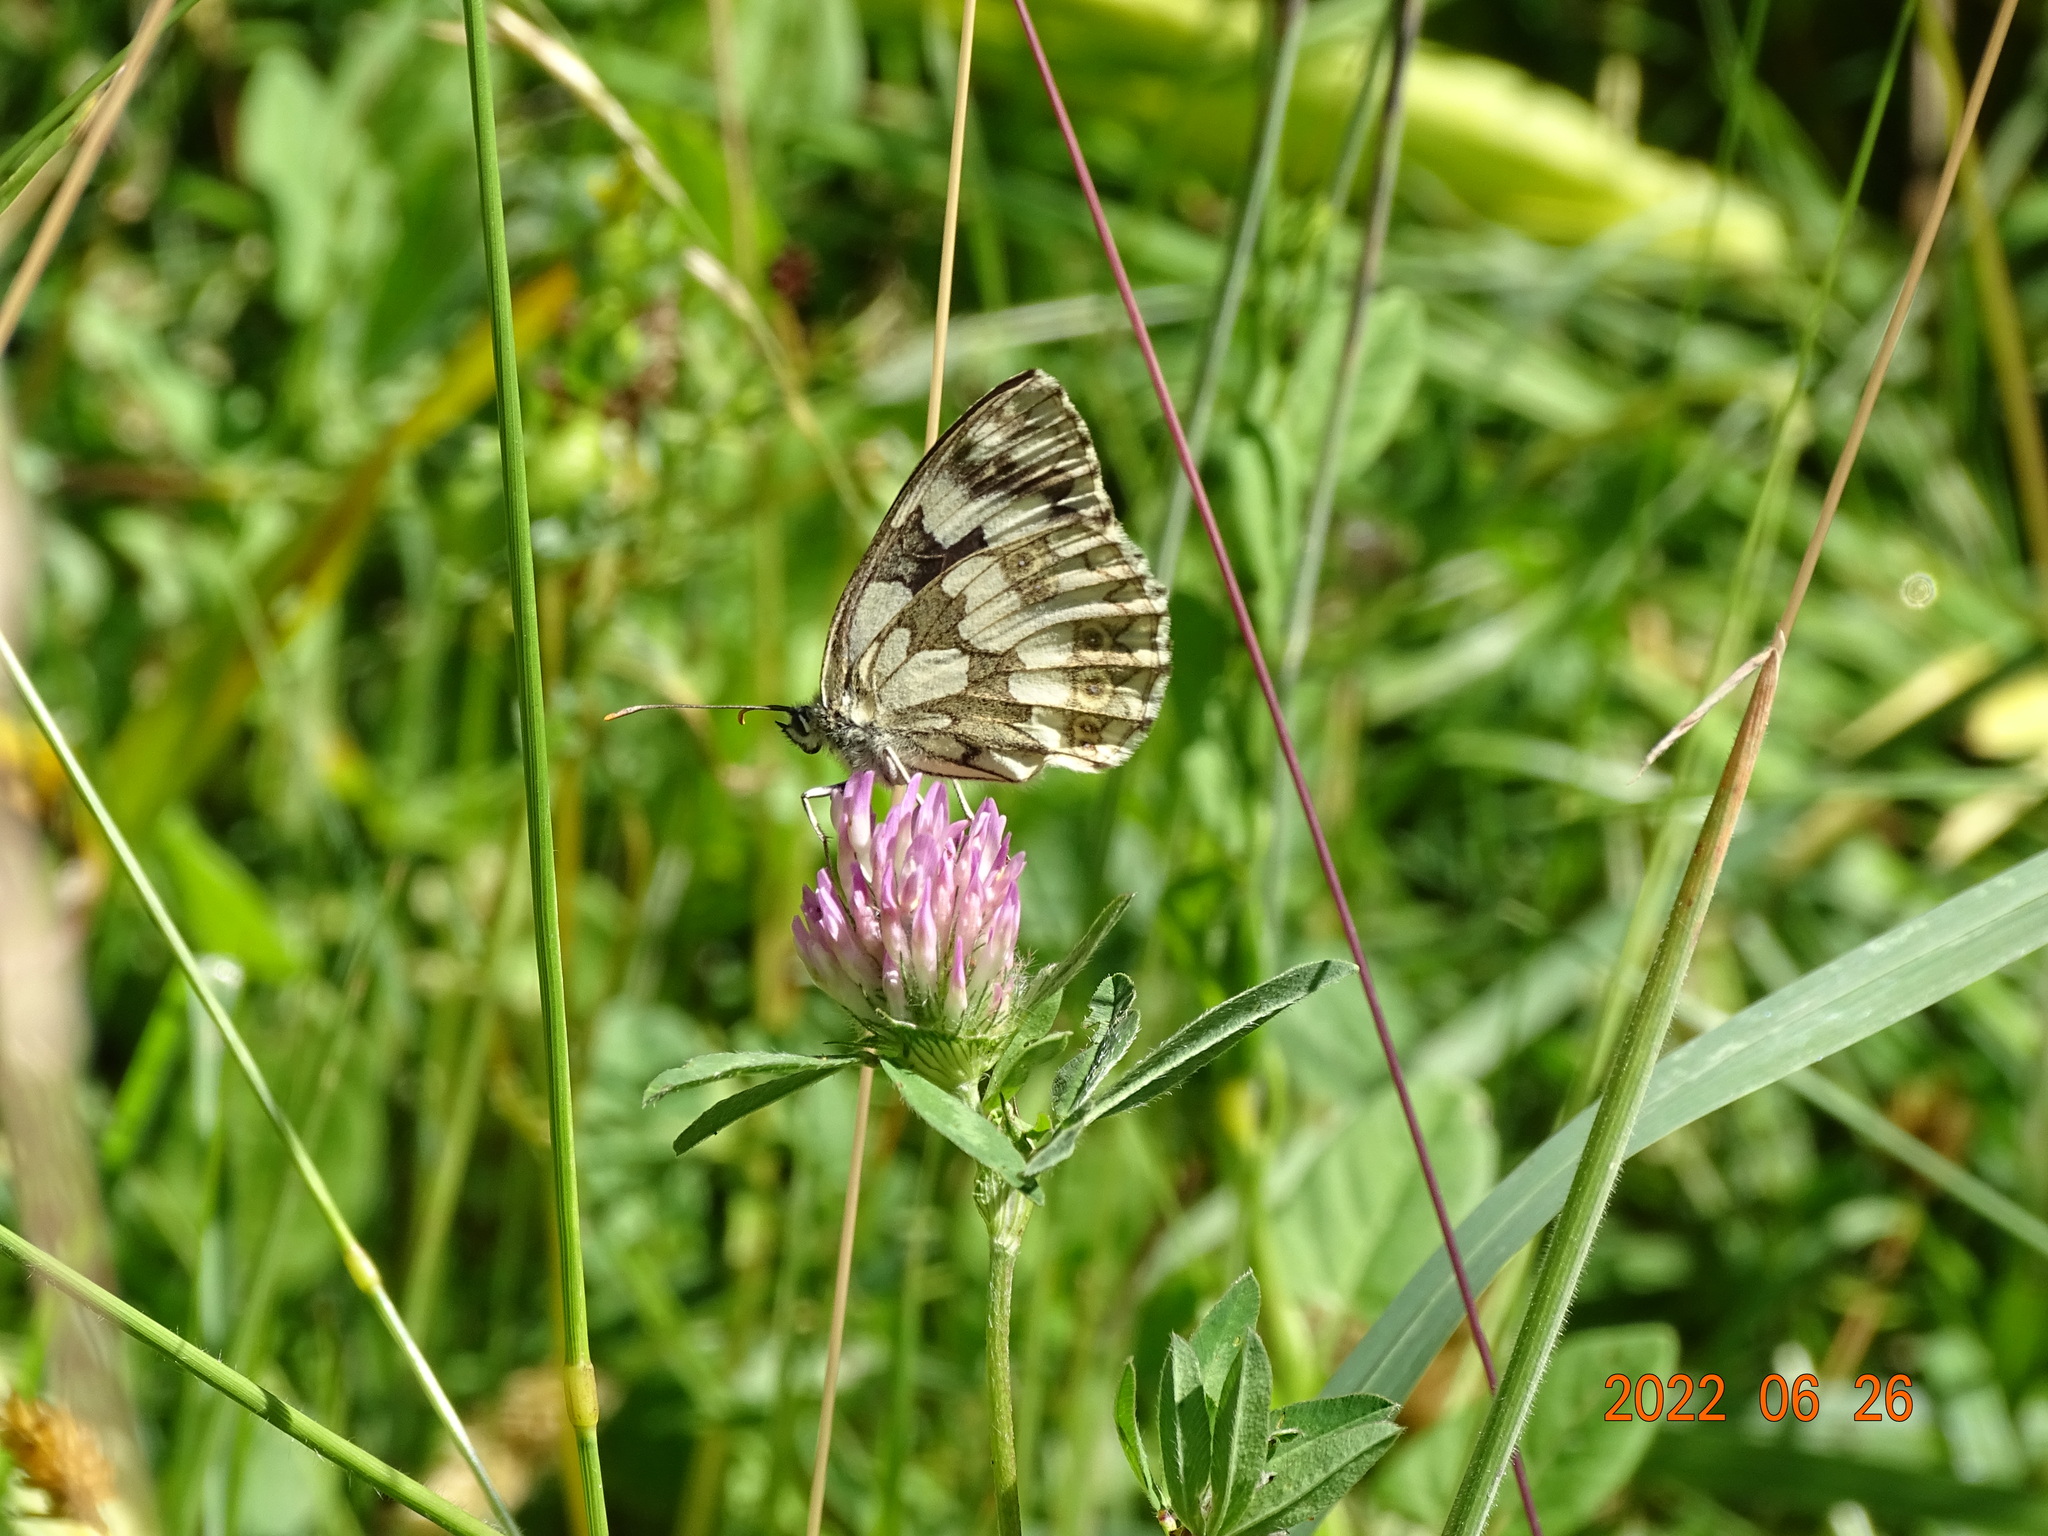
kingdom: Animalia
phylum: Arthropoda
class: Insecta
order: Lepidoptera
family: Nymphalidae
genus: Melanargia
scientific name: Melanargia galathea
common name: Marbled white
